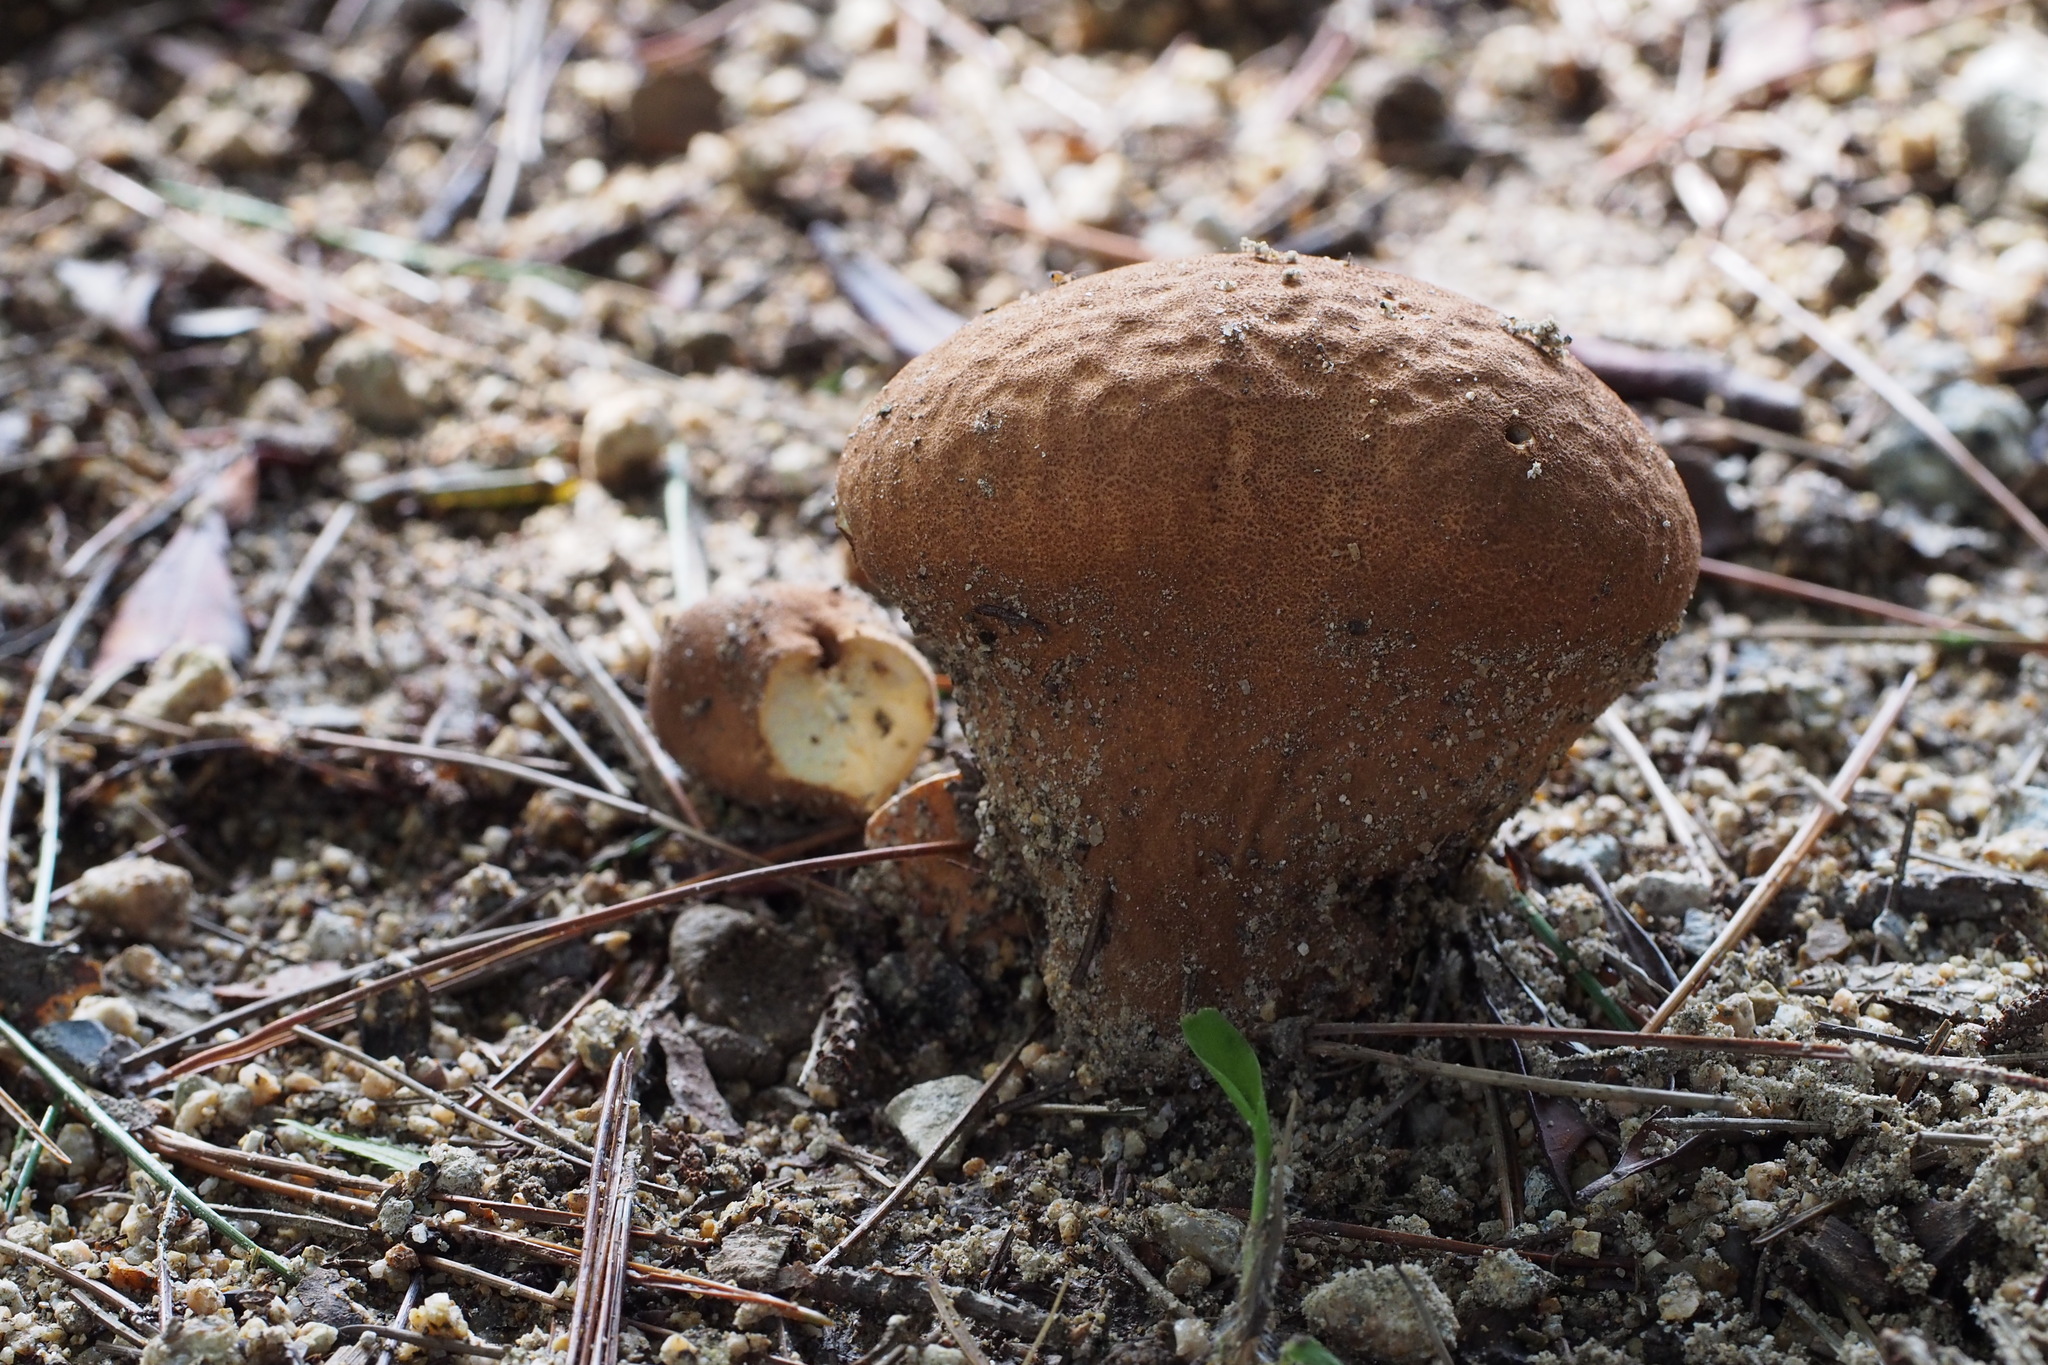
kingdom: Fungi
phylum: Basidiomycota
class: Agaricomycetes
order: Agaricales
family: Lycoperdaceae
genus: Calvatia
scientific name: Calvatia craniiformis
